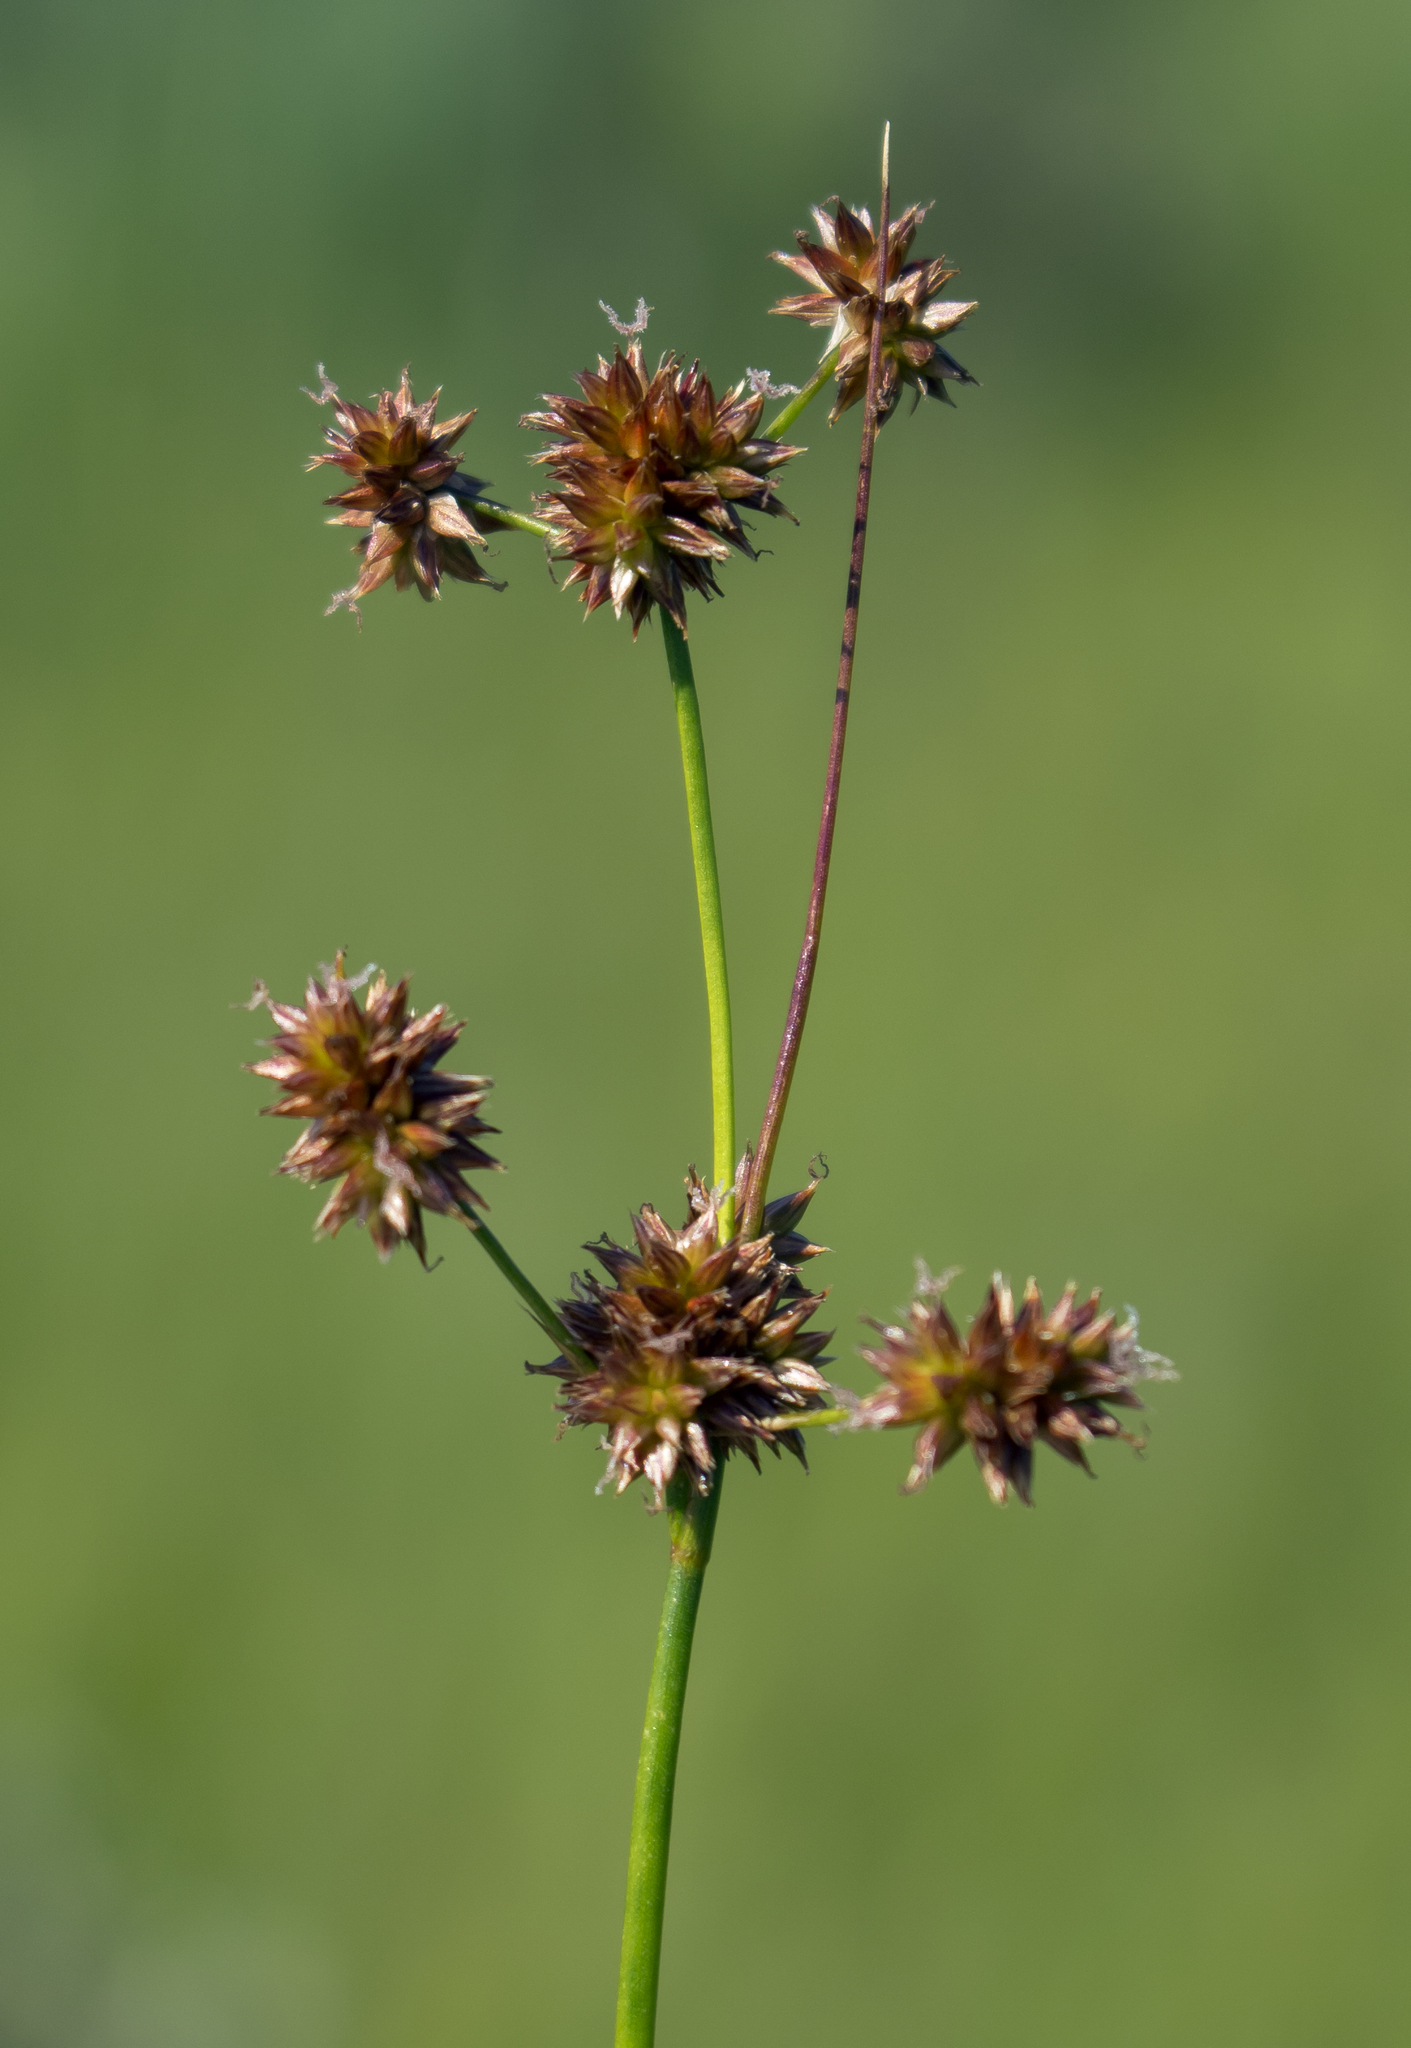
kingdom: Plantae
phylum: Tracheophyta
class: Liliopsida
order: Poales
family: Juncaceae
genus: Juncus
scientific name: Juncus nodosus
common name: Knotted rush
